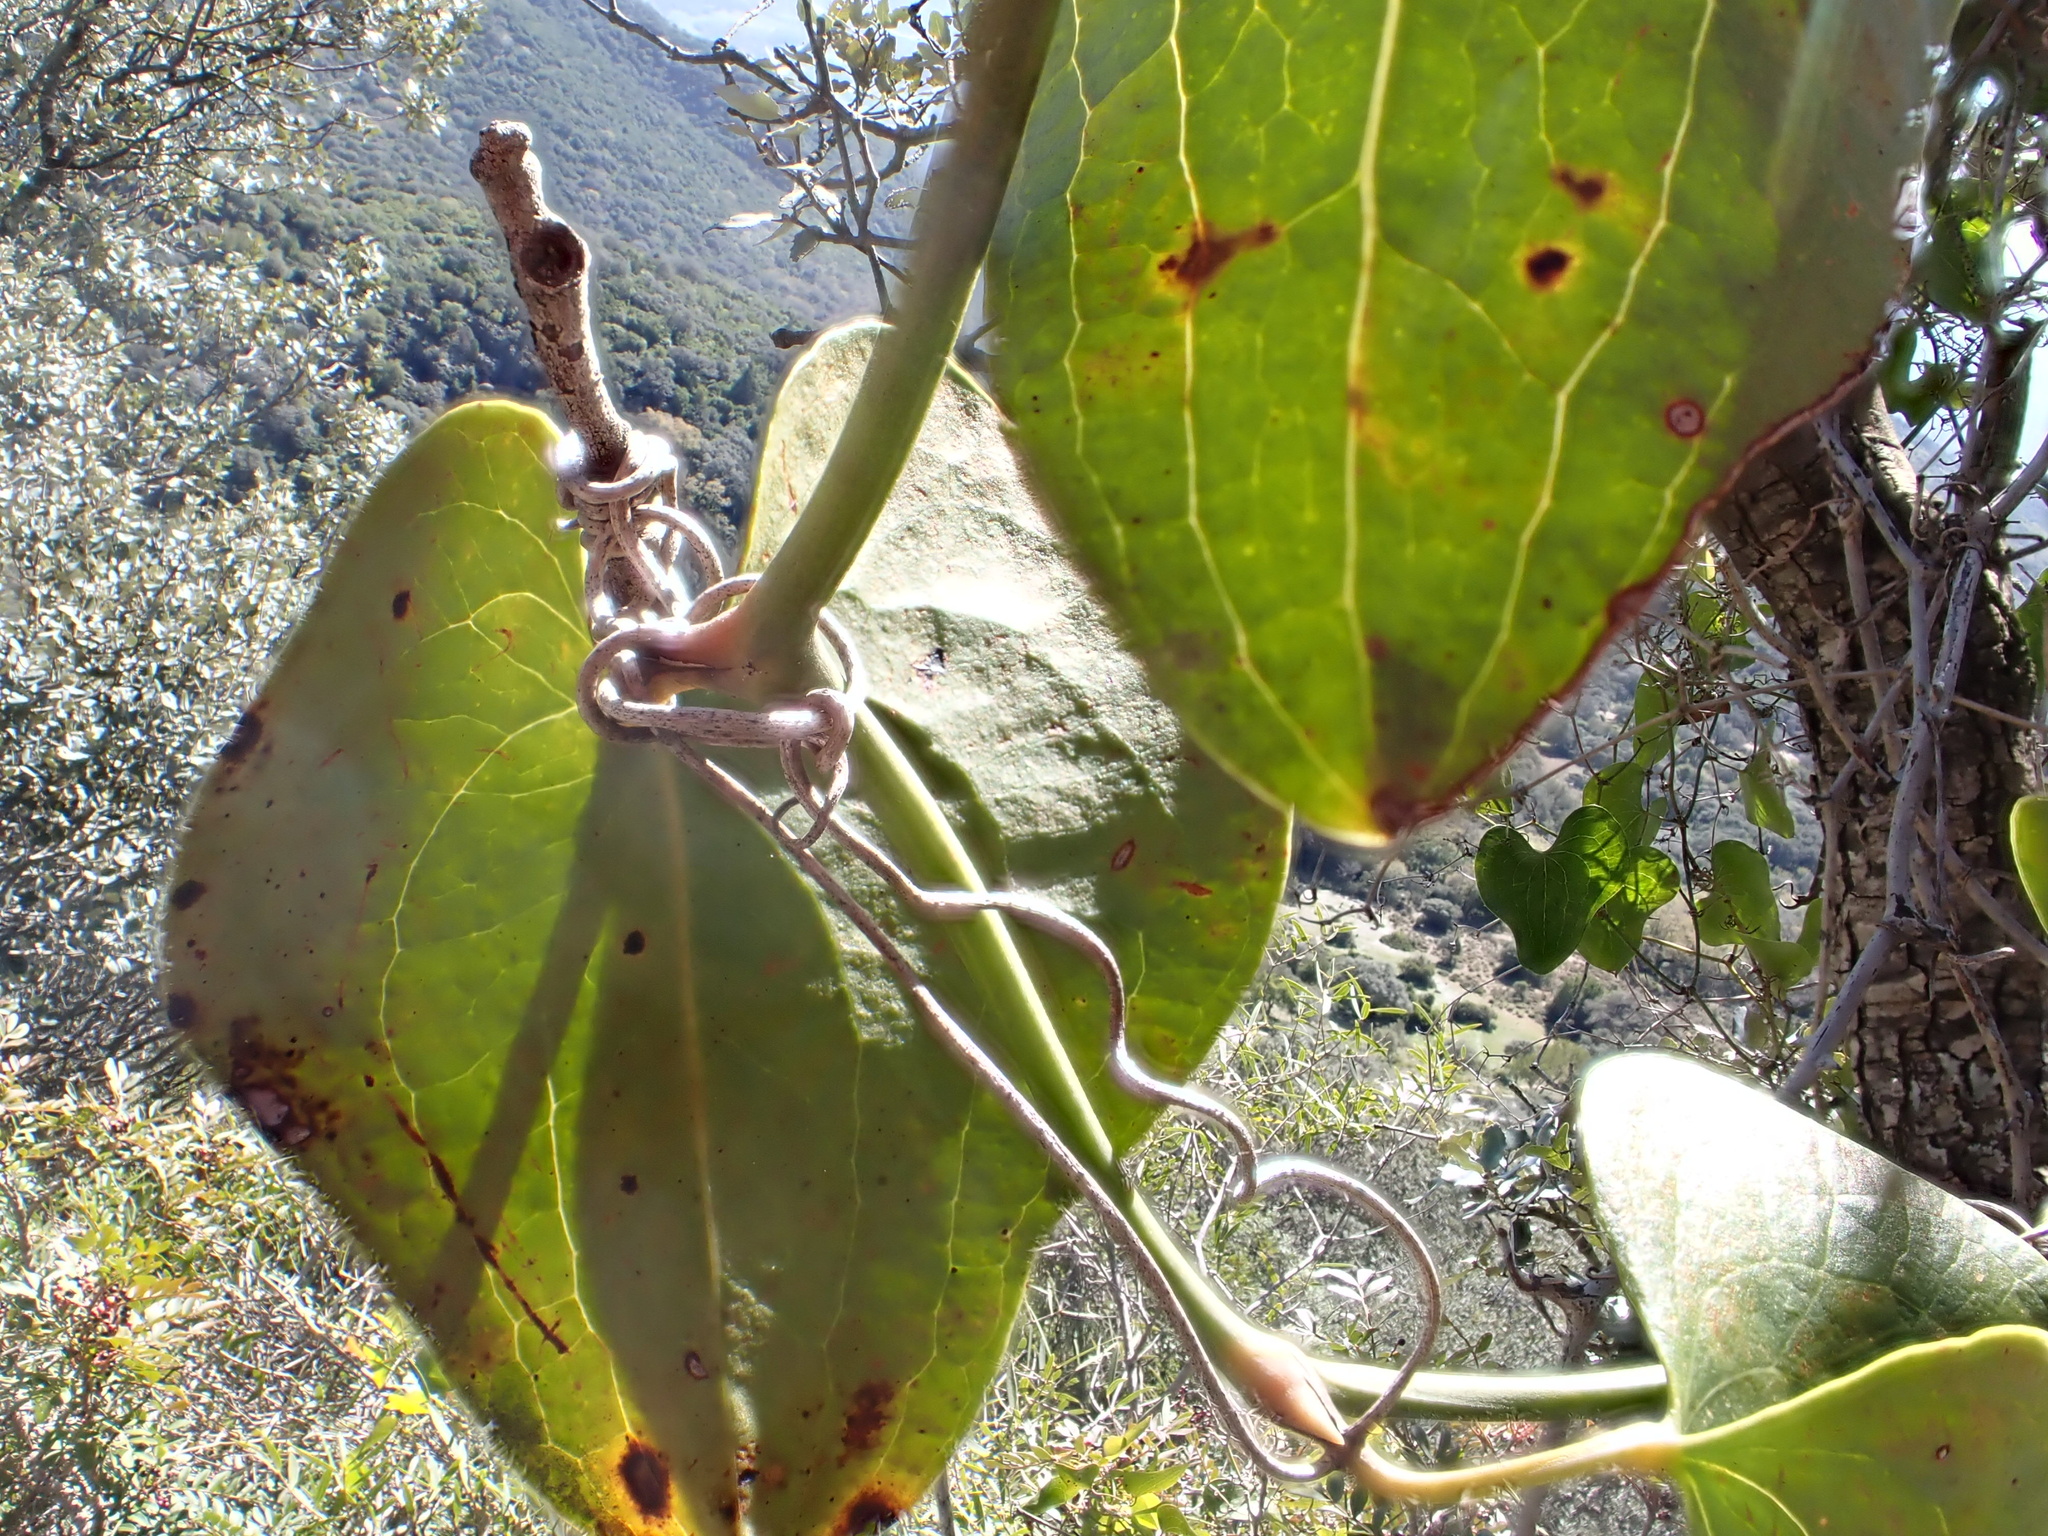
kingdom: Plantae
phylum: Tracheophyta
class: Liliopsida
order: Liliales
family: Smilacaceae
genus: Smilax
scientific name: Smilax aspera
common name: Common smilax
